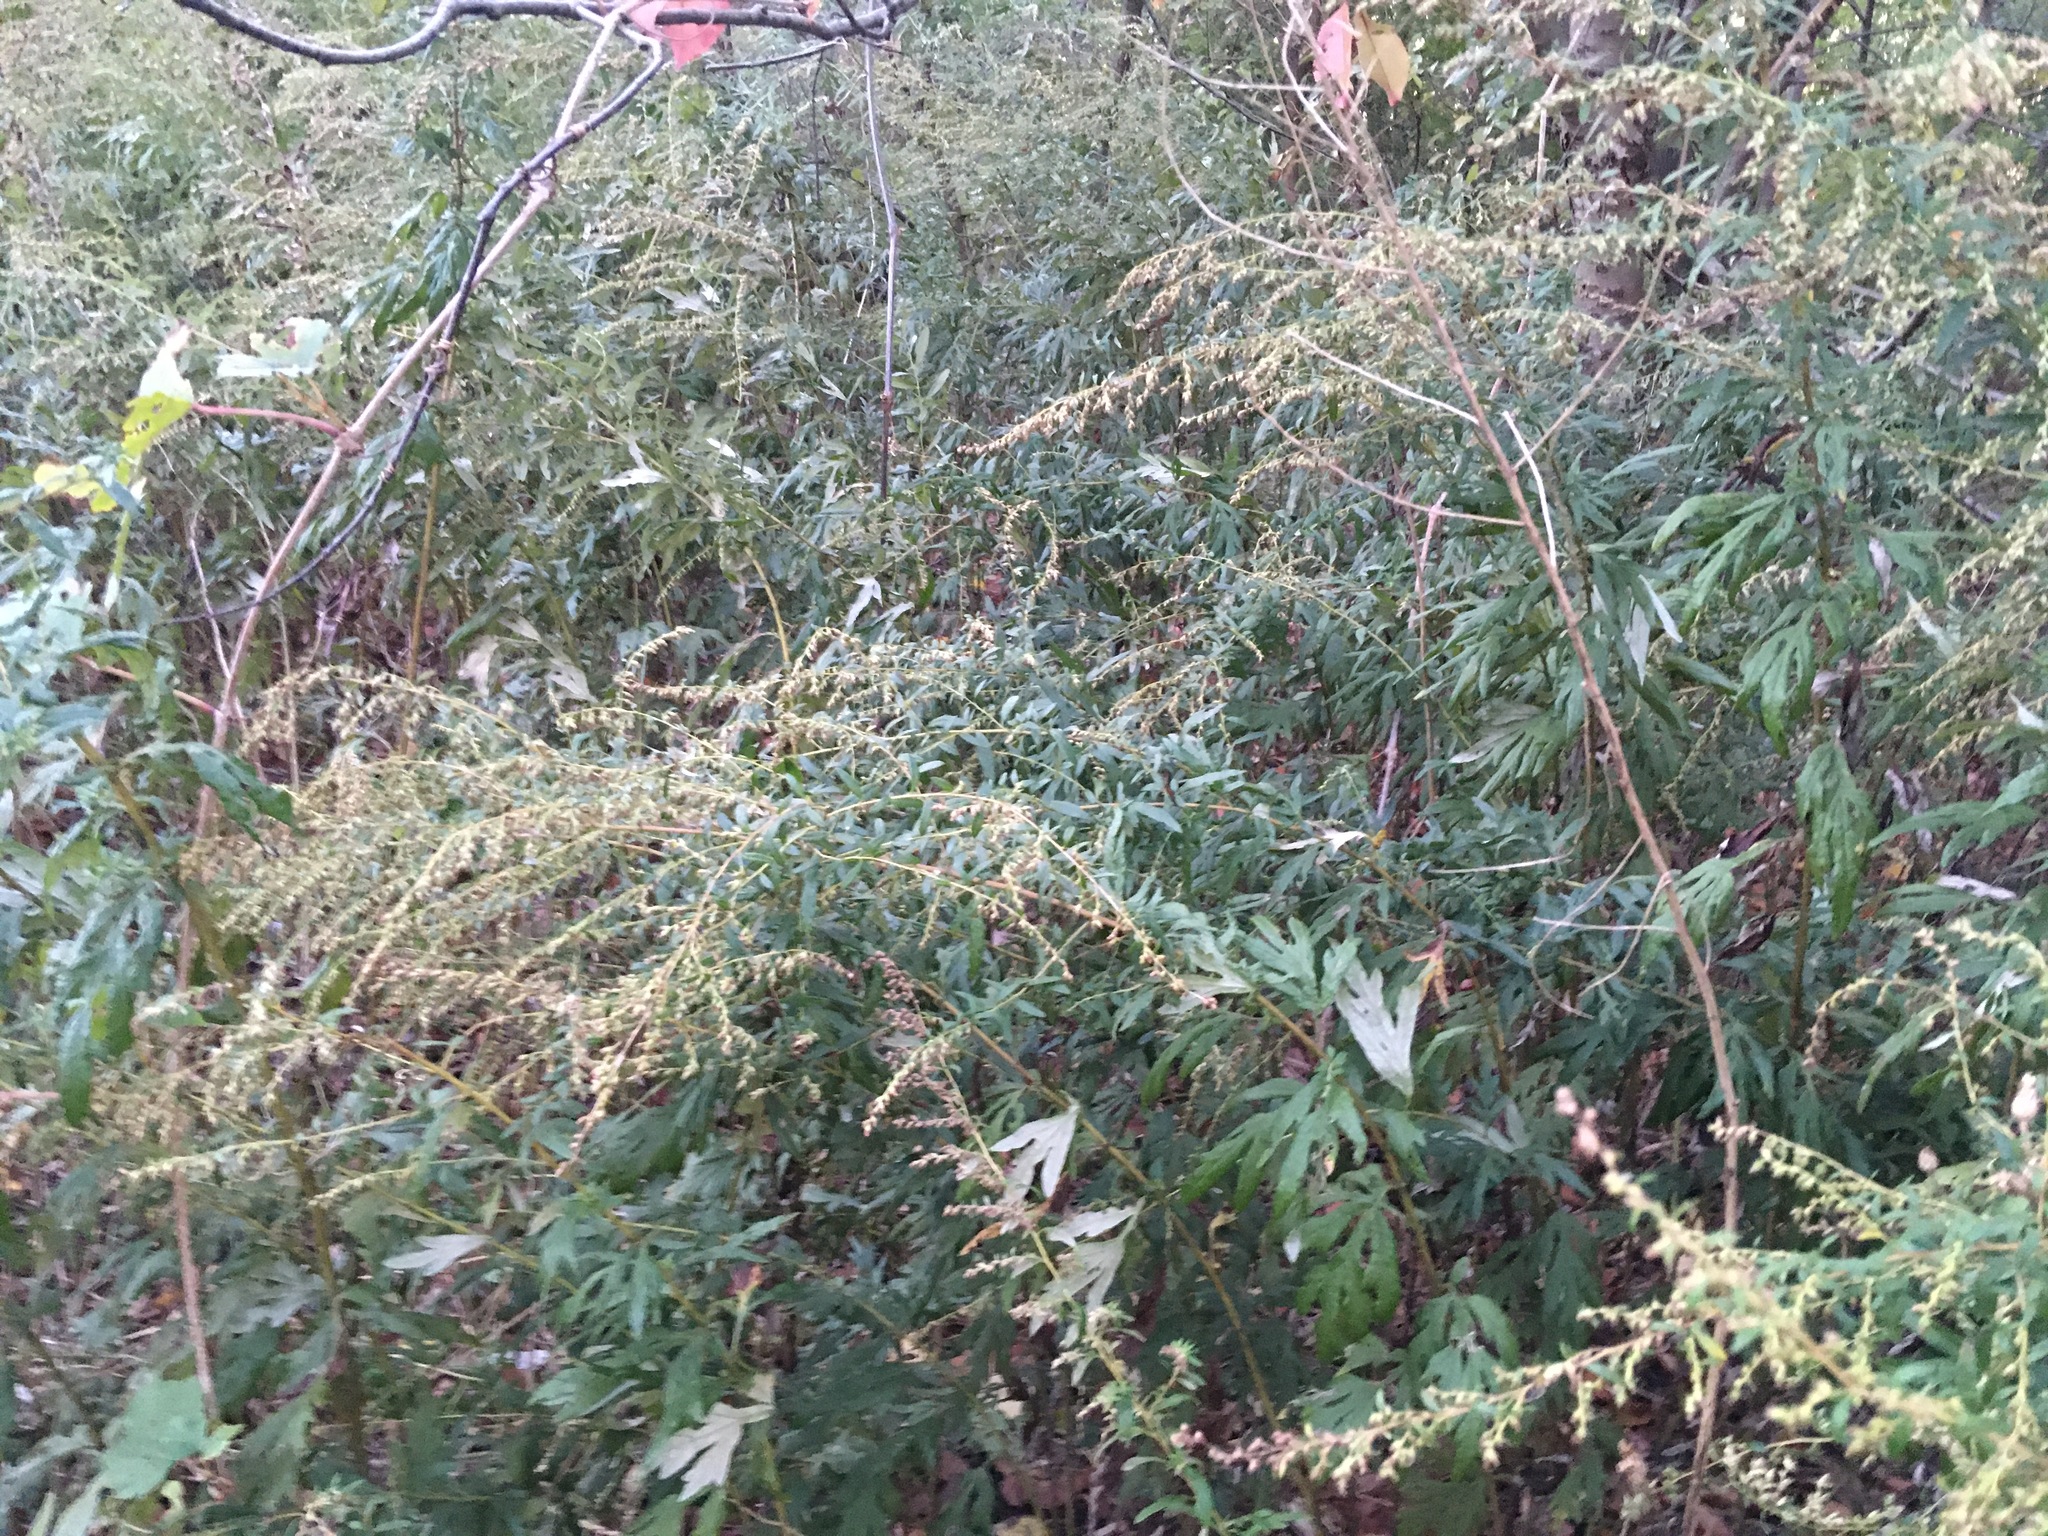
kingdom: Plantae
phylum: Tracheophyta
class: Magnoliopsida
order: Asterales
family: Asteraceae
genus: Artemisia
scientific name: Artemisia vulgaris
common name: Mugwort
